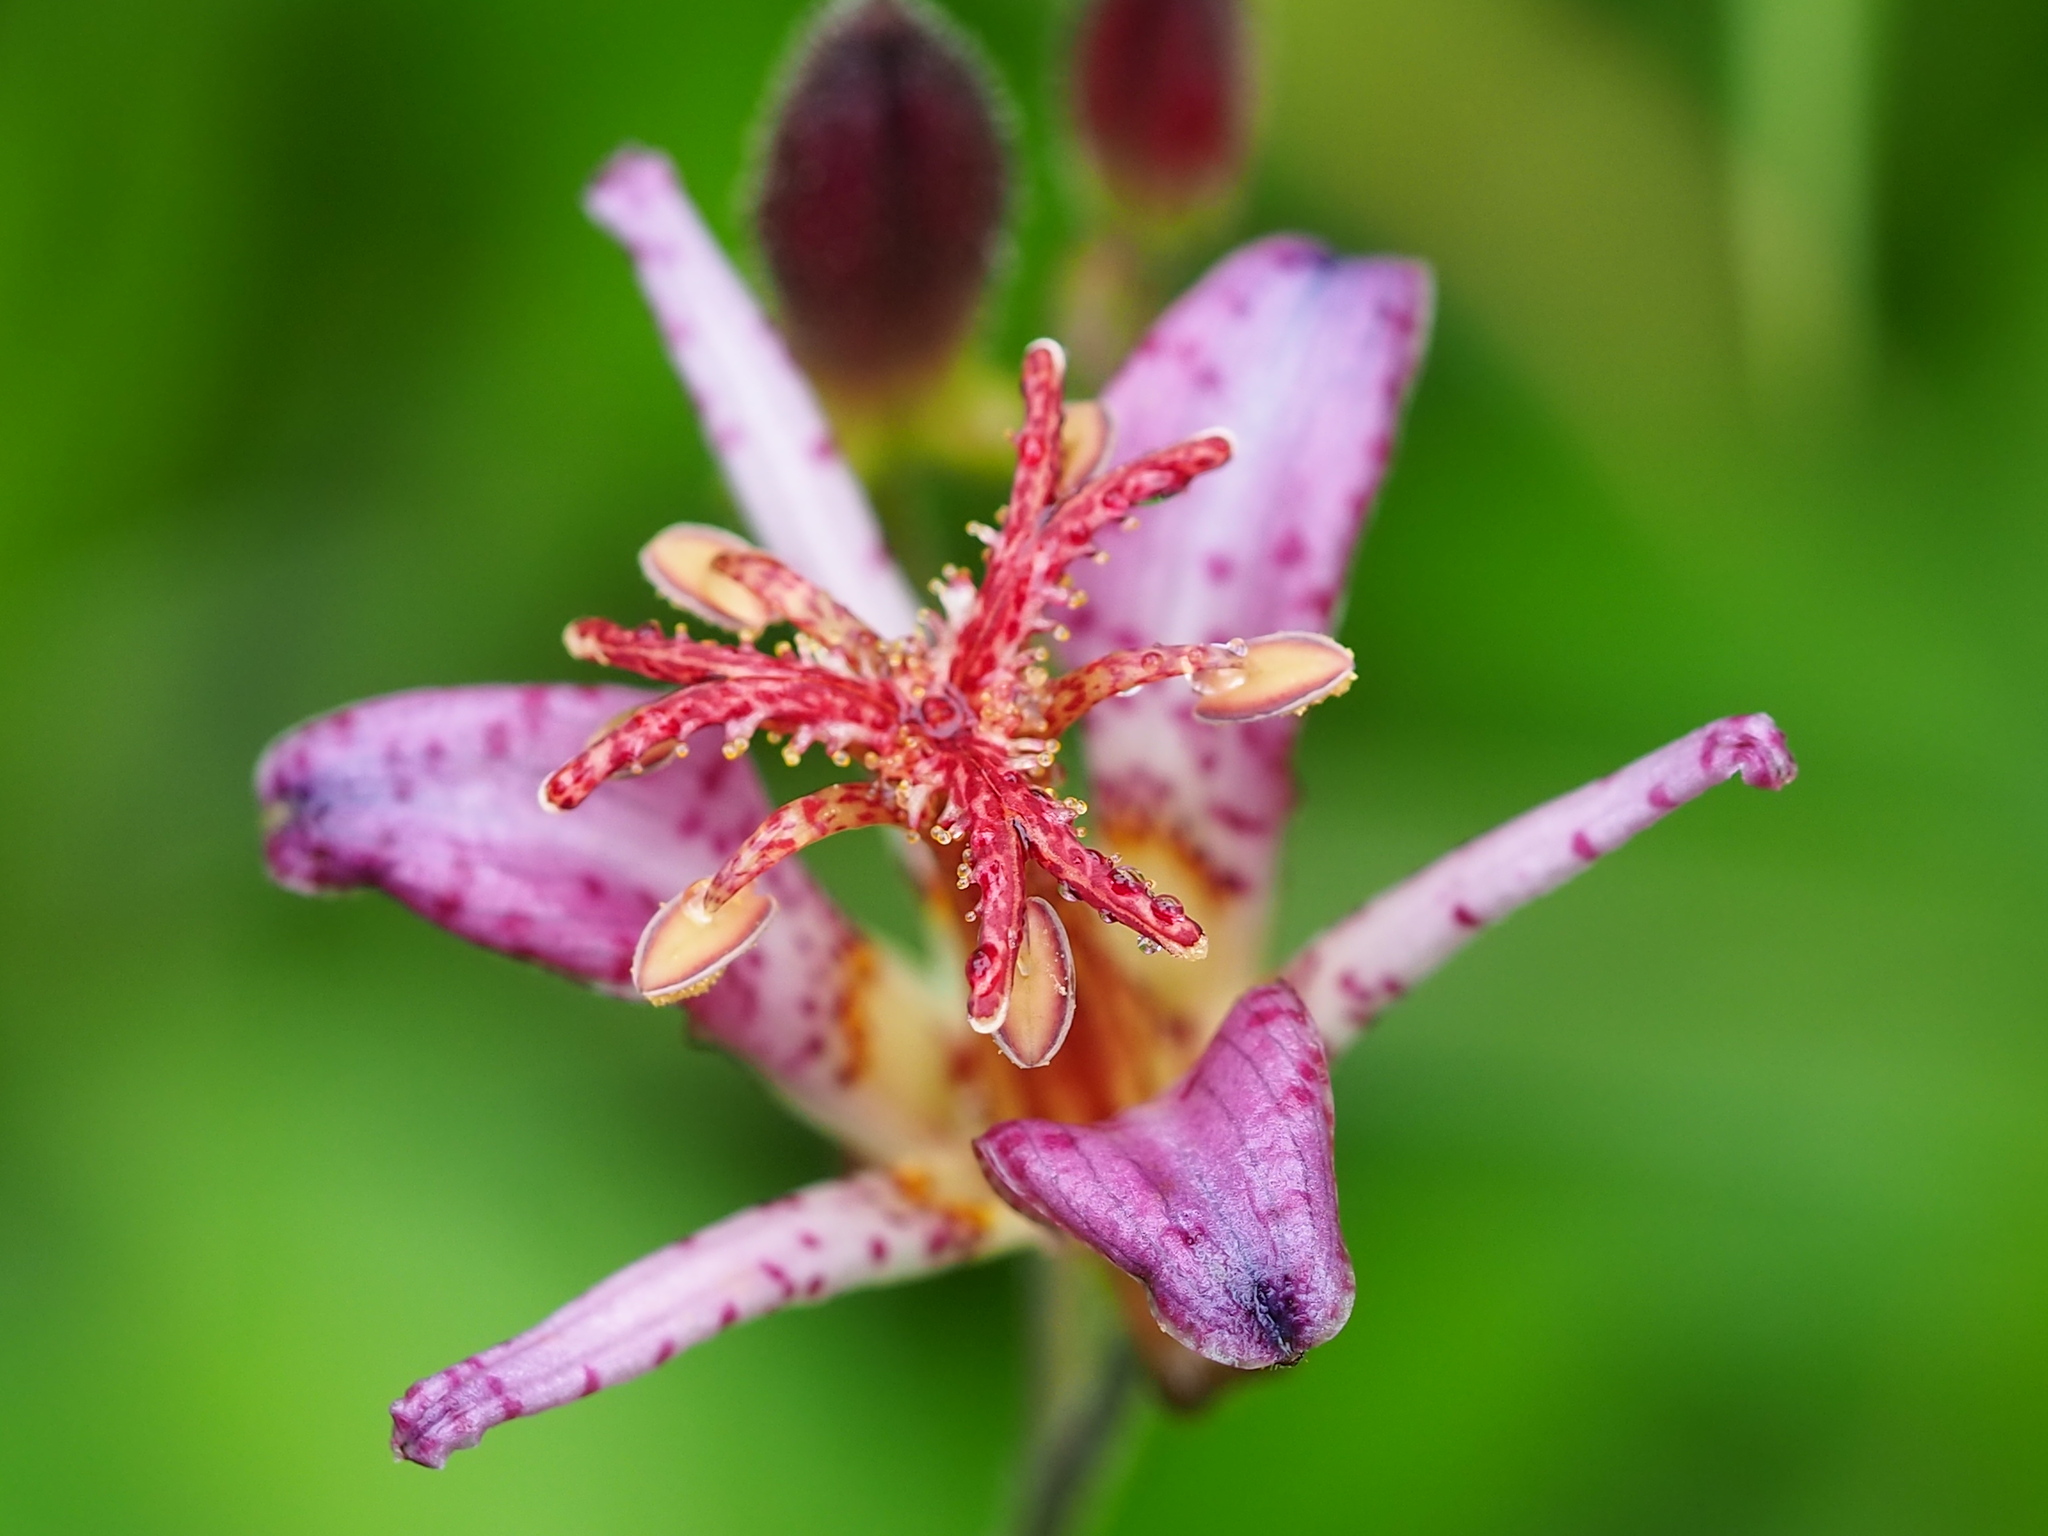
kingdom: Plantae
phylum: Tracheophyta
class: Liliopsida
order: Liliales
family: Liliaceae
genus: Tricyrtis
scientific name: Tricyrtis formosana
